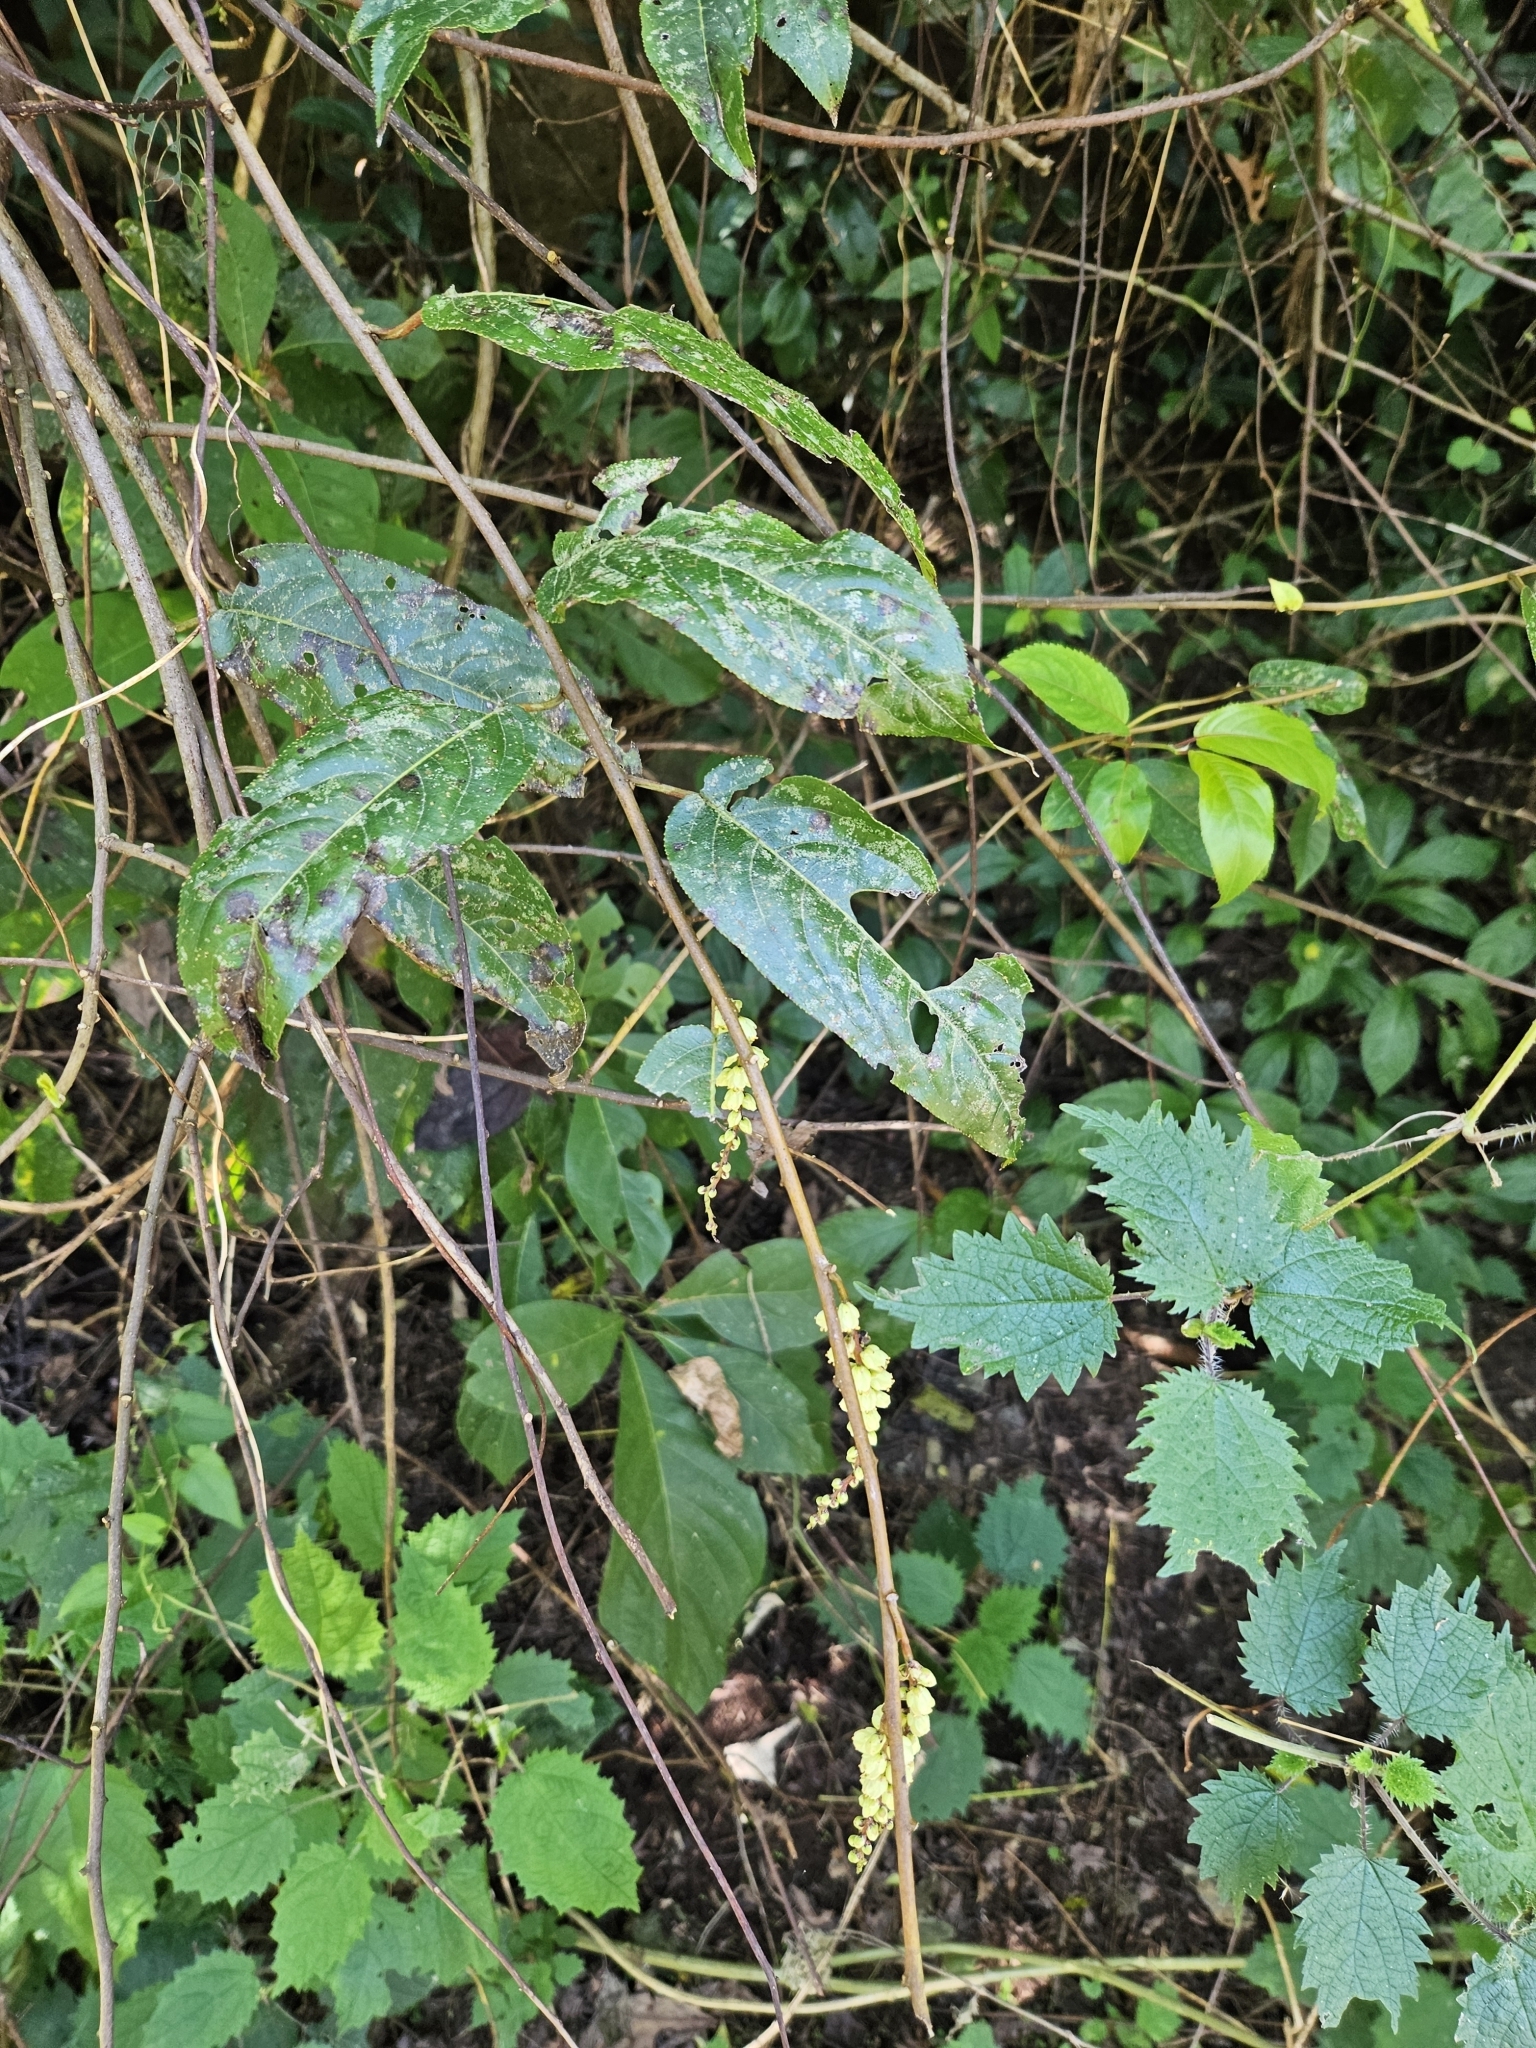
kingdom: Plantae
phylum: Tracheophyta
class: Magnoliopsida
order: Crossosomatales
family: Stachyuraceae
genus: Stachyurus
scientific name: Stachyurus himalaicus
